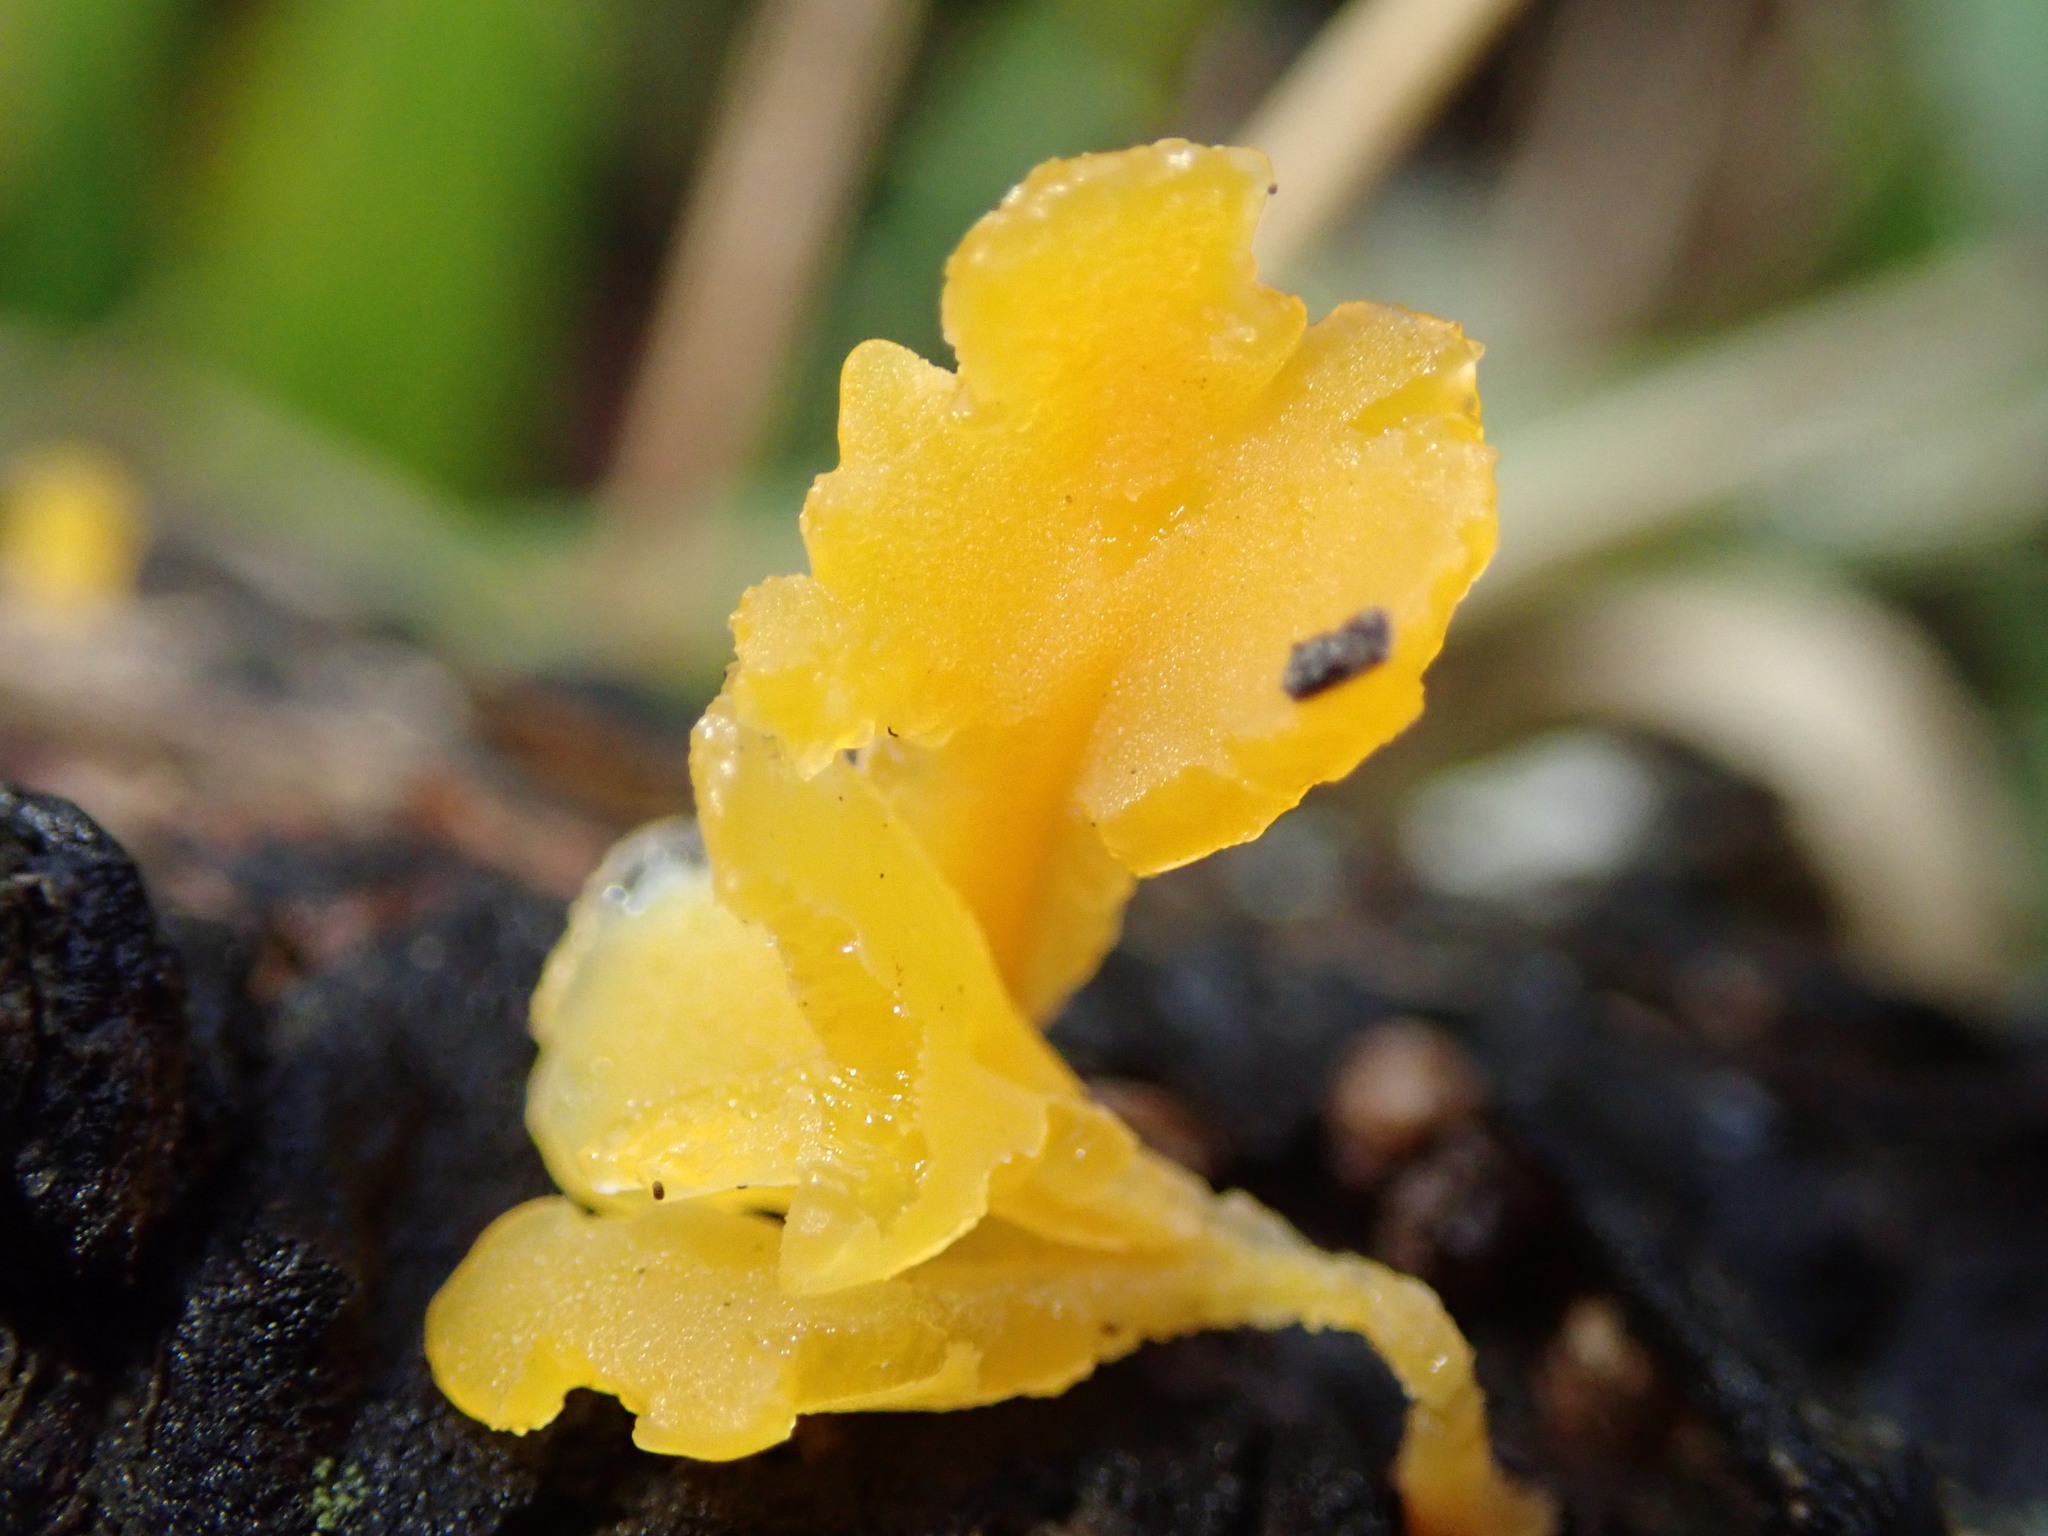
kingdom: Fungi
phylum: Basidiomycota
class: Tremellomycetes
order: Tremellales
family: Tremellaceae
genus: Tremella
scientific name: Tremella mesenterica
